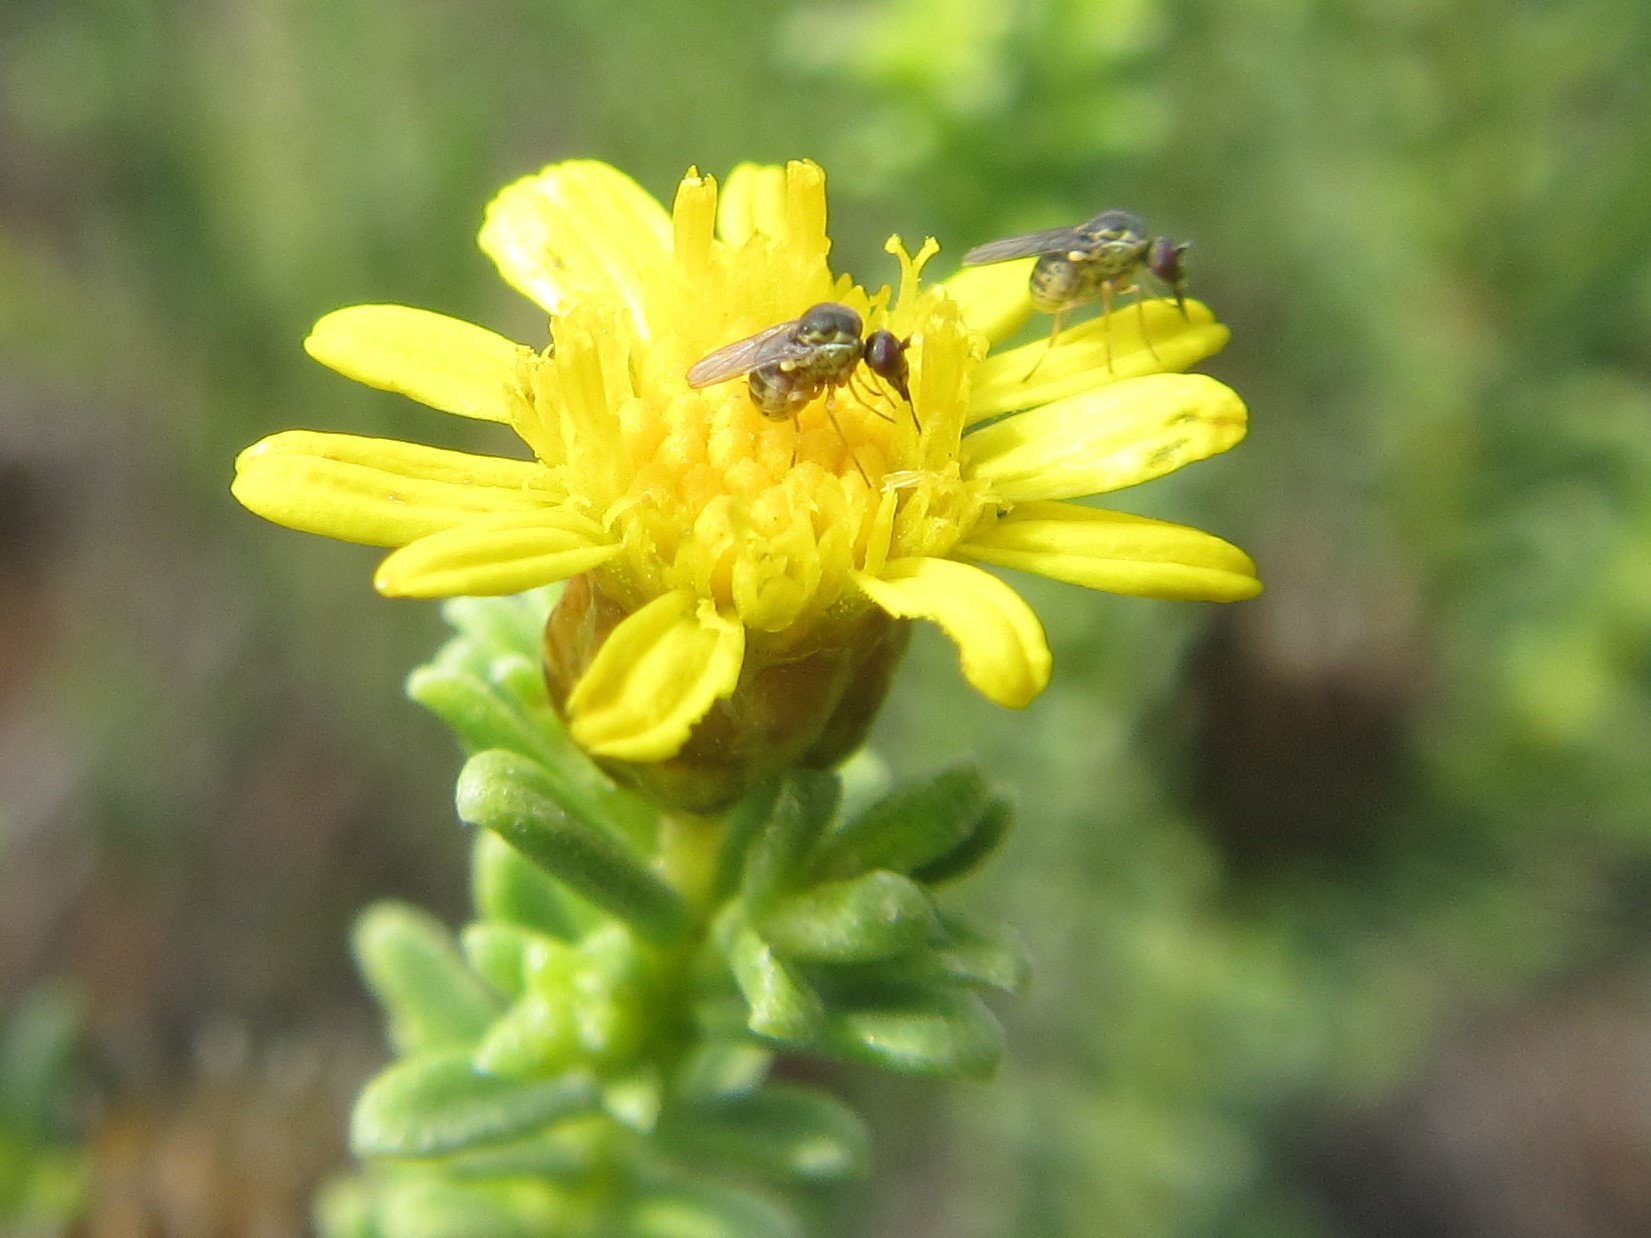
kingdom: Plantae
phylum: Tracheophyta
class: Magnoliopsida
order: Asterales
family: Asteraceae
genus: Oedera
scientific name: Oedera uniflora
